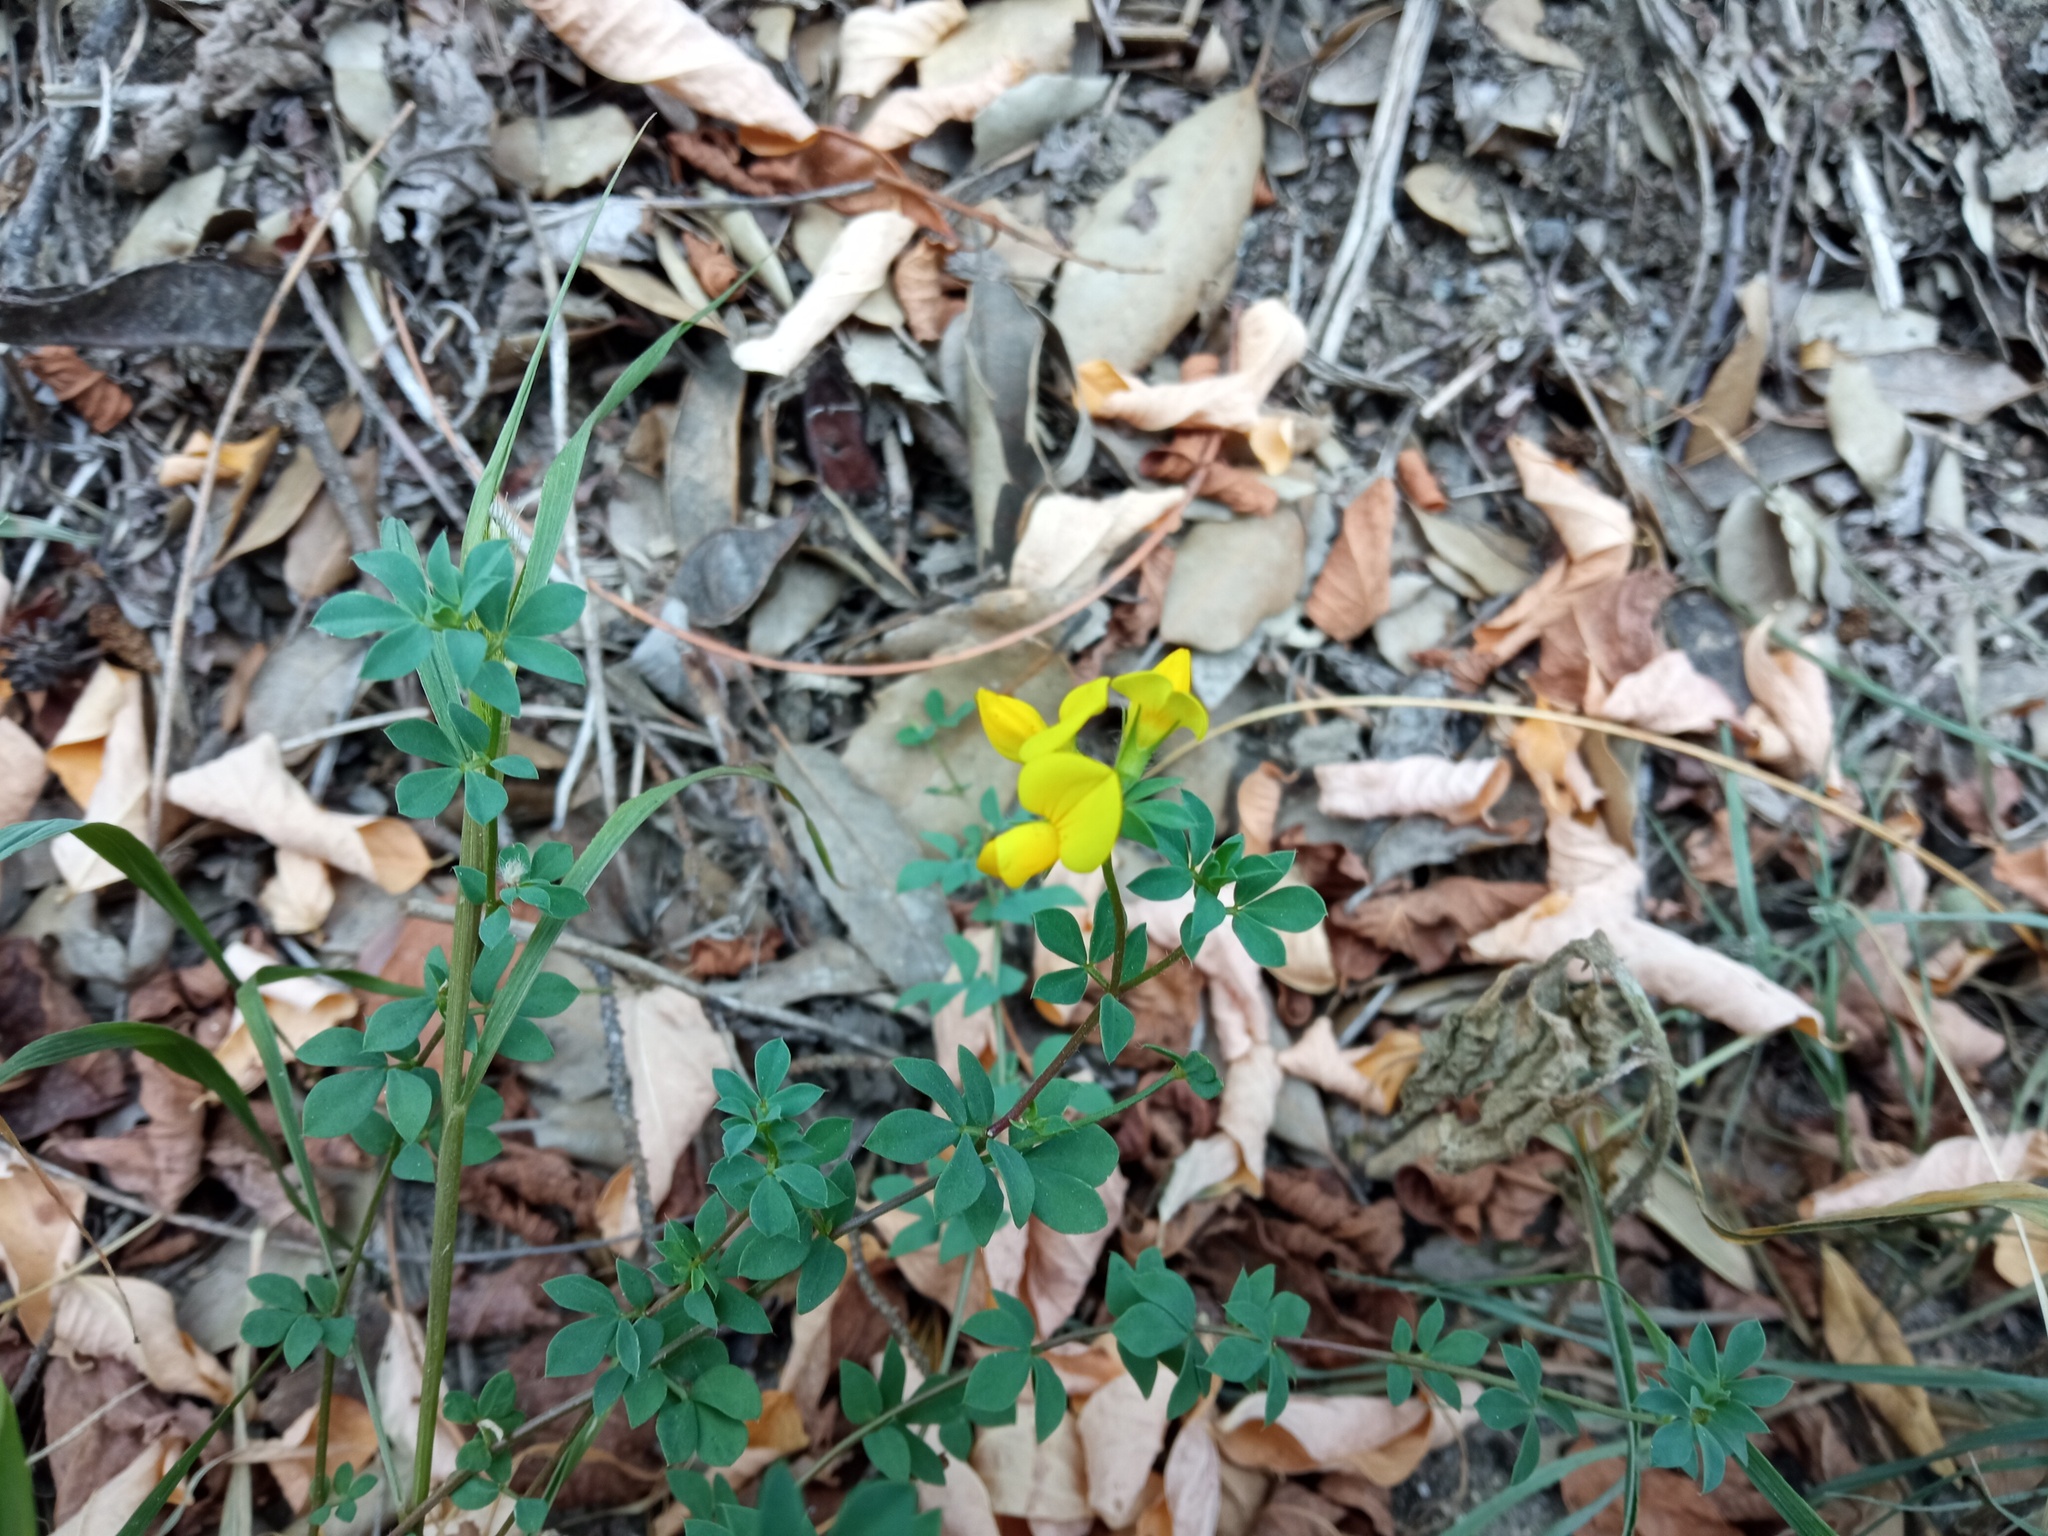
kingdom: Plantae
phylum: Tracheophyta
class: Magnoliopsida
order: Fabales
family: Fabaceae
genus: Lotus
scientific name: Lotus corniculatus
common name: Common bird's-foot-trefoil
